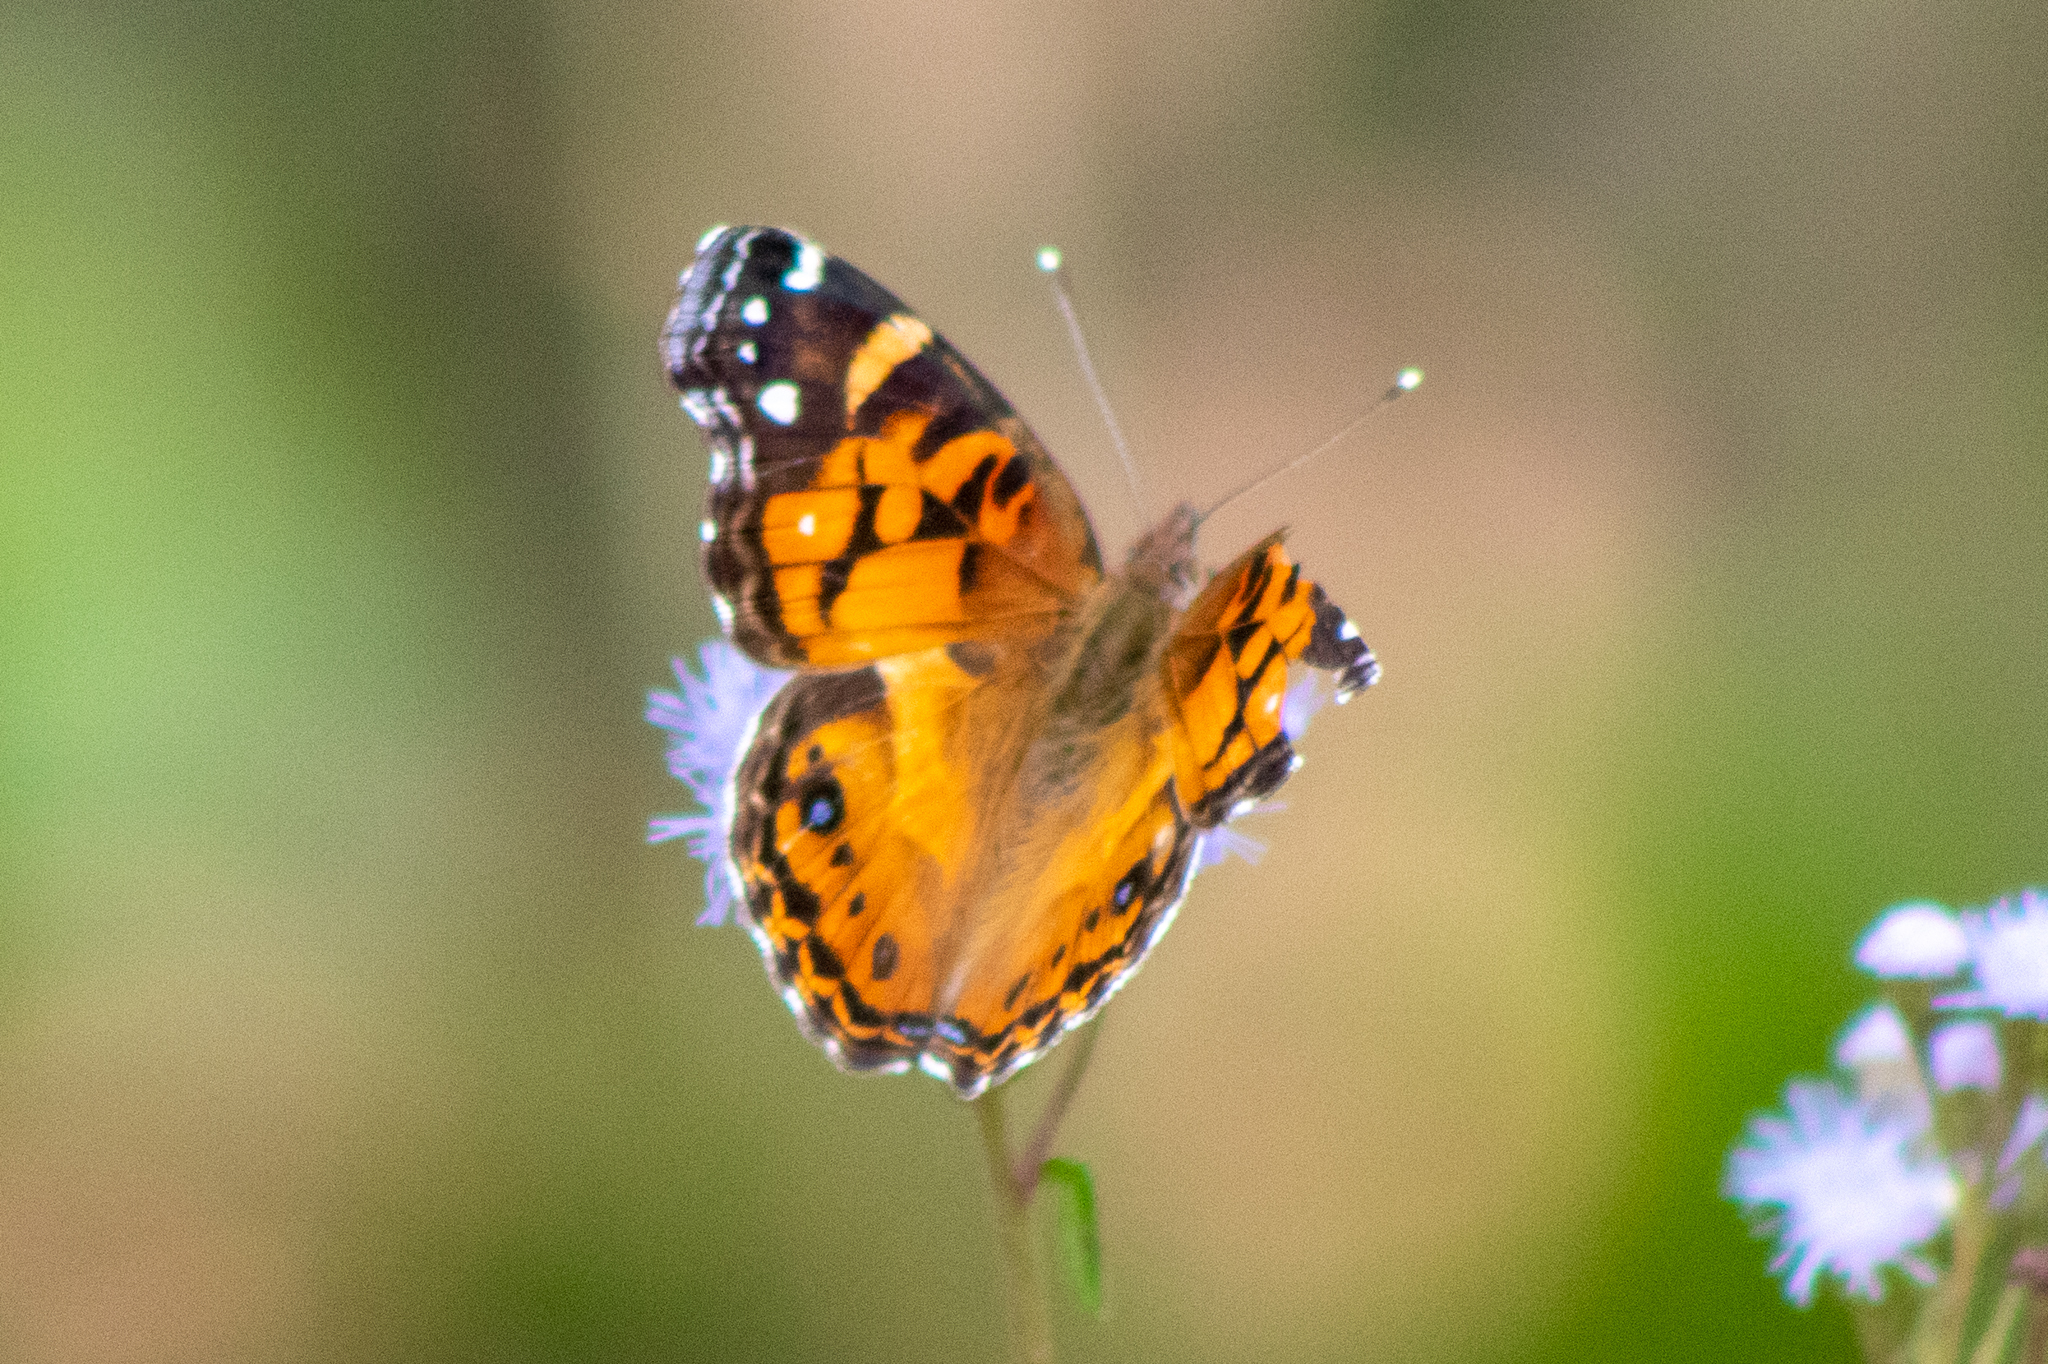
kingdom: Animalia
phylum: Arthropoda
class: Insecta
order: Lepidoptera
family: Nymphalidae
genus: Vanessa
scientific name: Vanessa virginiensis
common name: American lady
